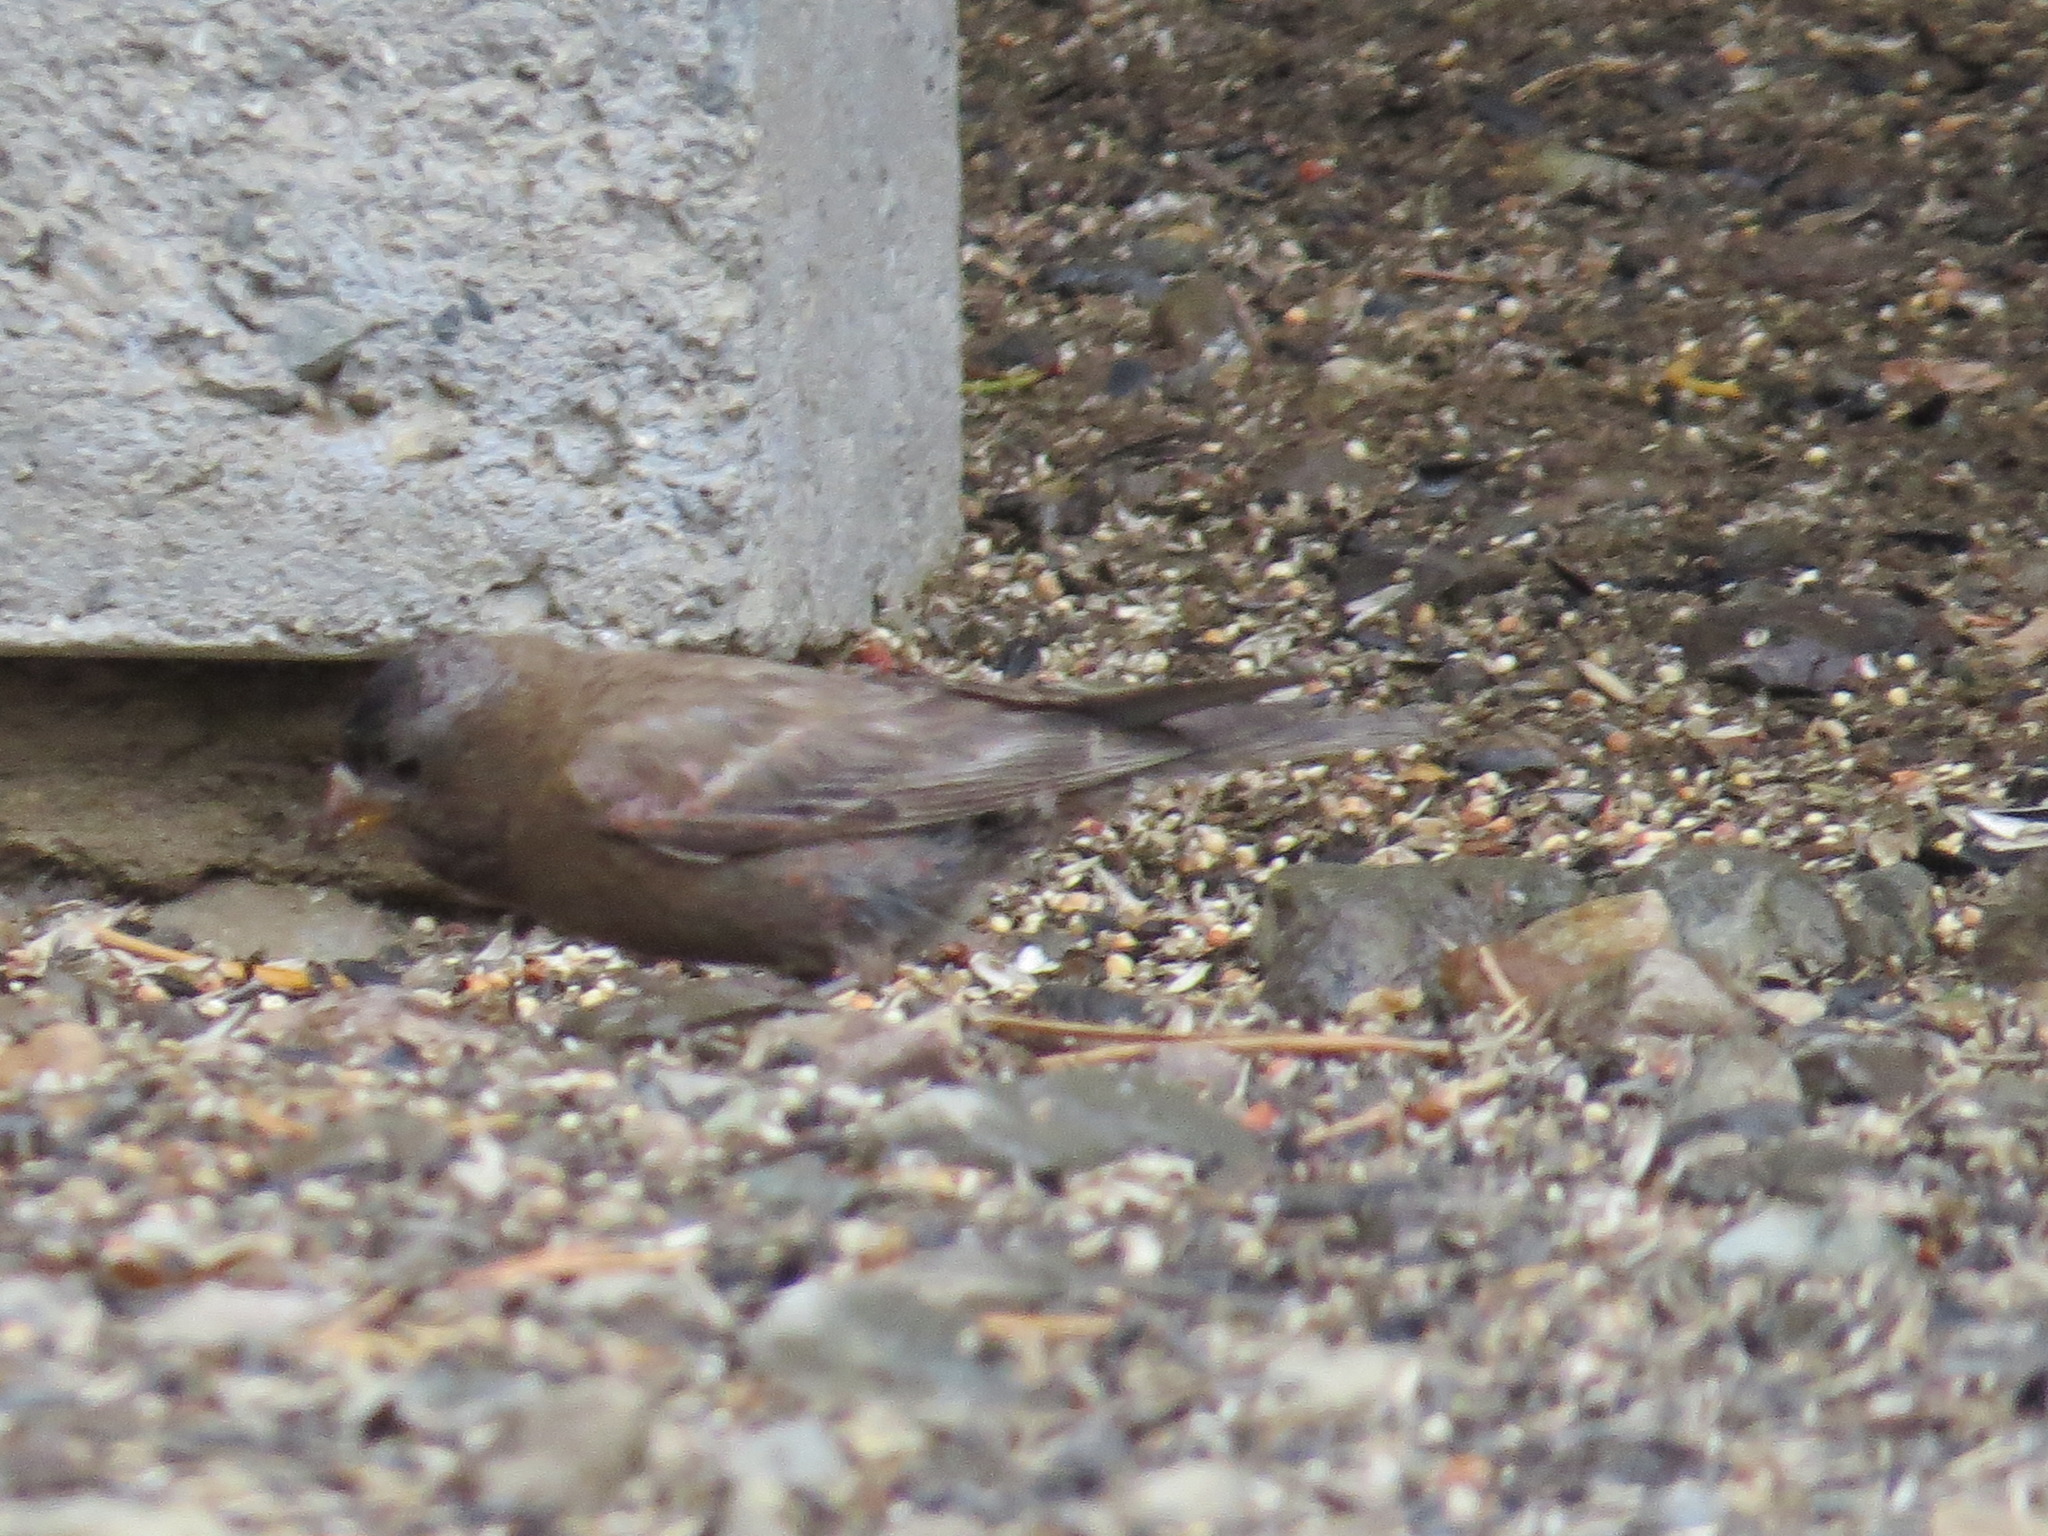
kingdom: Animalia
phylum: Chordata
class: Aves
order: Passeriformes
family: Fringillidae
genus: Leucosticte
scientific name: Leucosticte tephrocotis
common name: Gray-crowned rosy-finch
